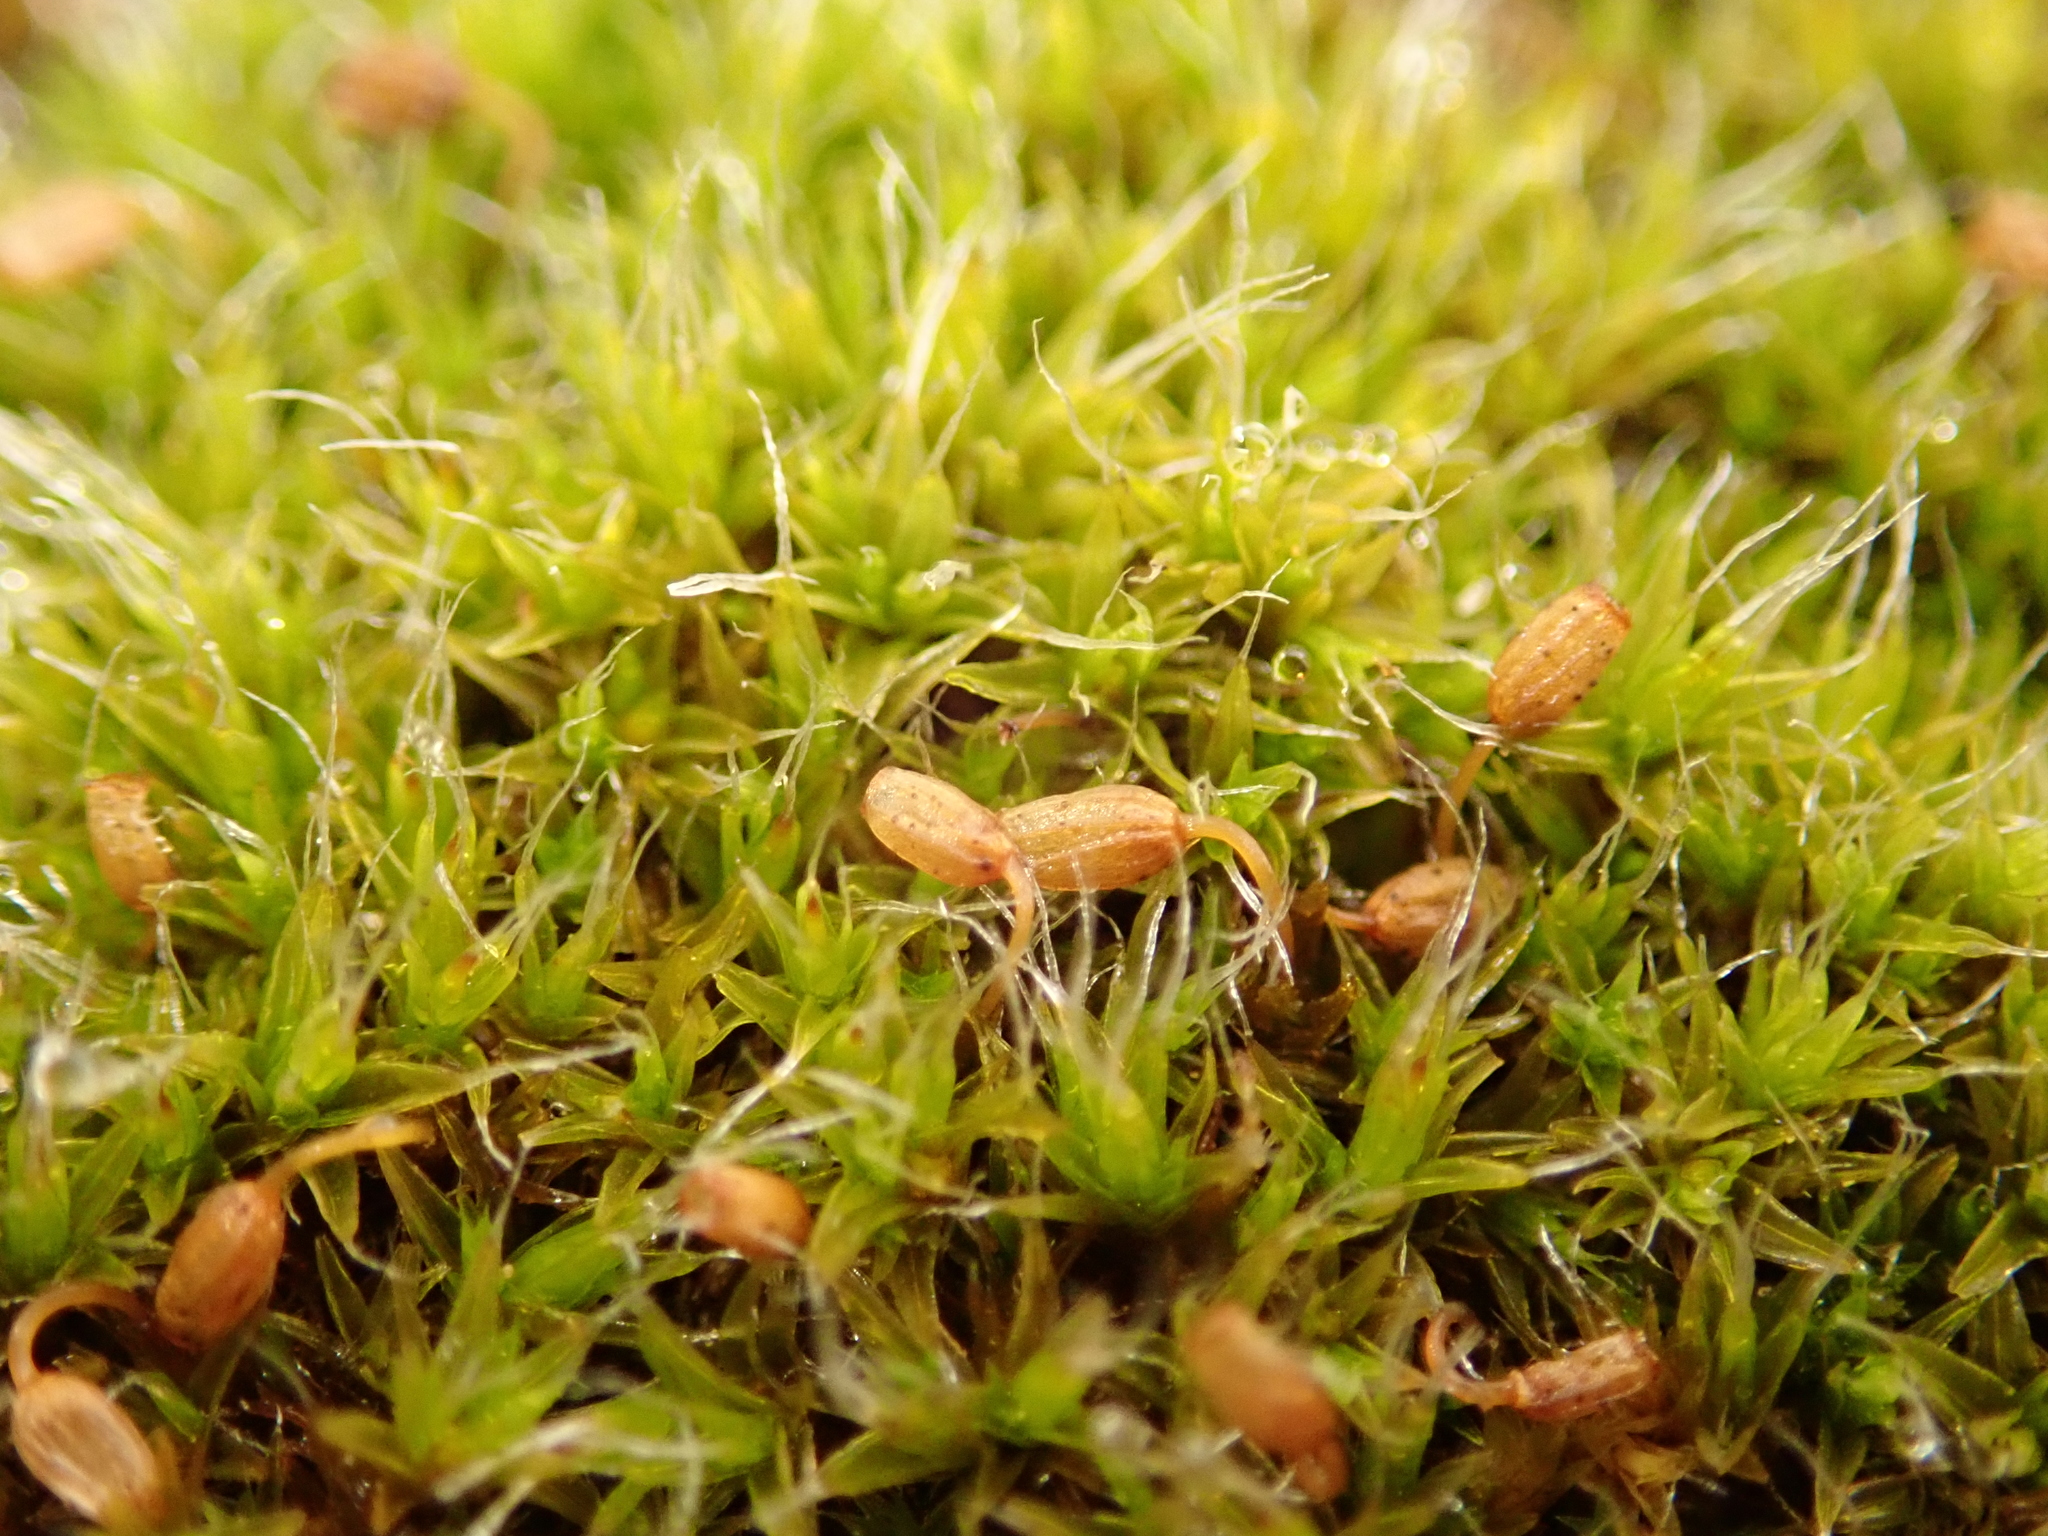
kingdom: Plantae
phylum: Bryophyta
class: Bryopsida
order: Grimmiales
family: Grimmiaceae
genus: Grimmia
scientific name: Grimmia pulvinata
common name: Grey-cushioned grimmia
